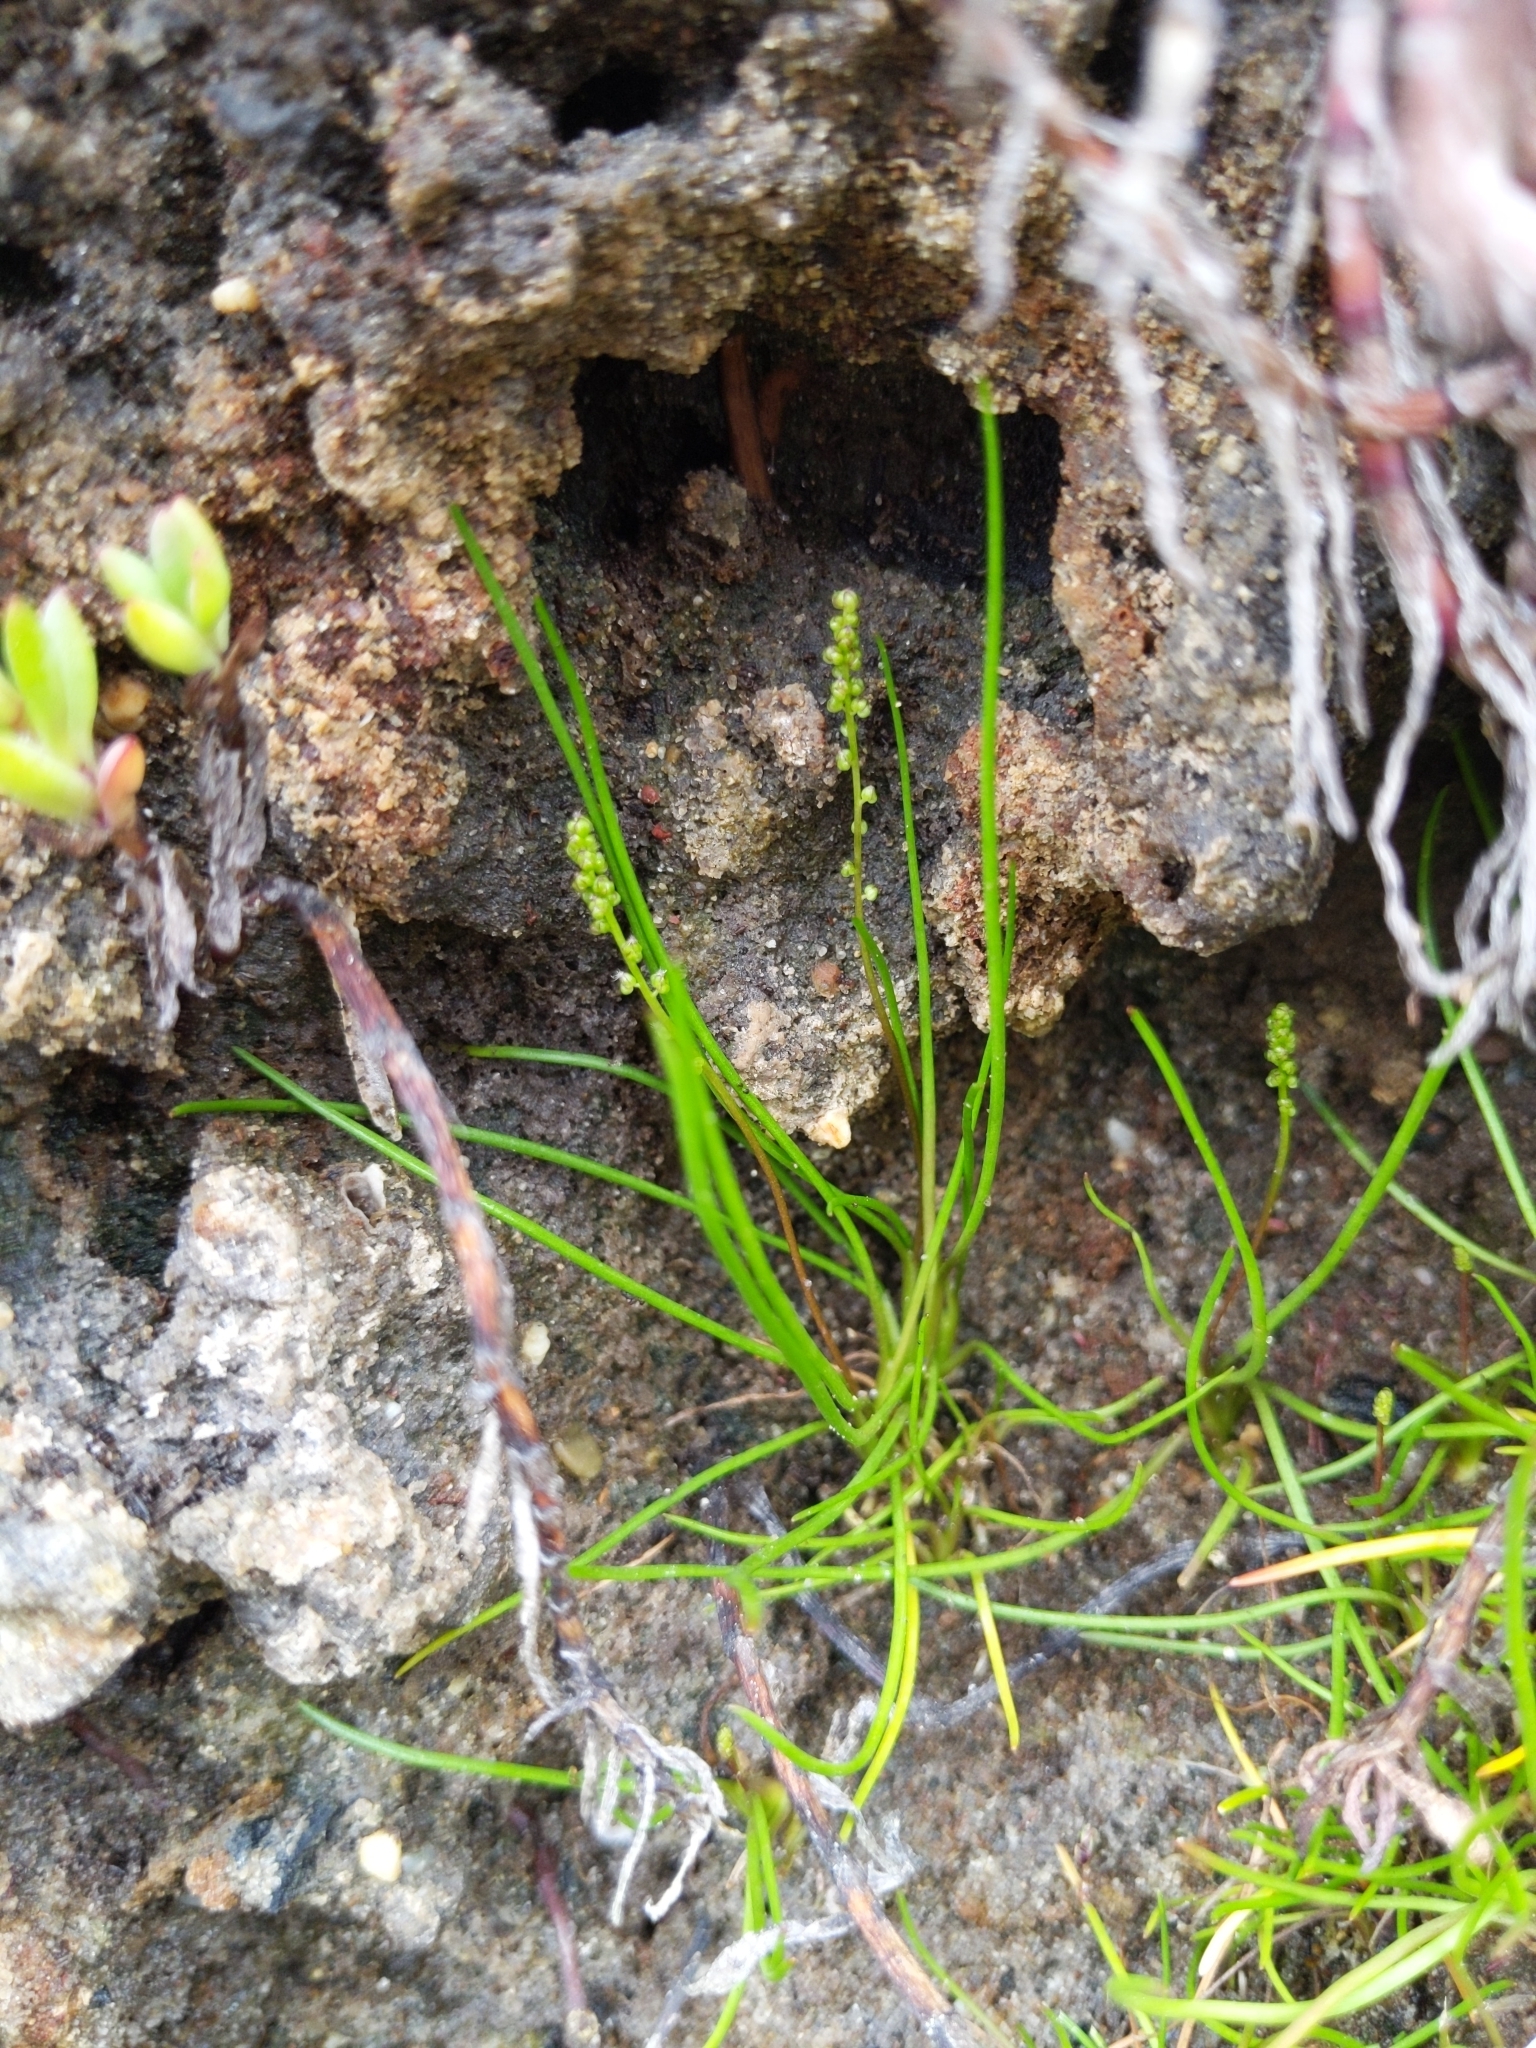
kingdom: Plantae
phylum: Tracheophyta
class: Liliopsida
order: Alismatales
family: Juncaginaceae
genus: Triglochin
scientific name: Triglochin striata
